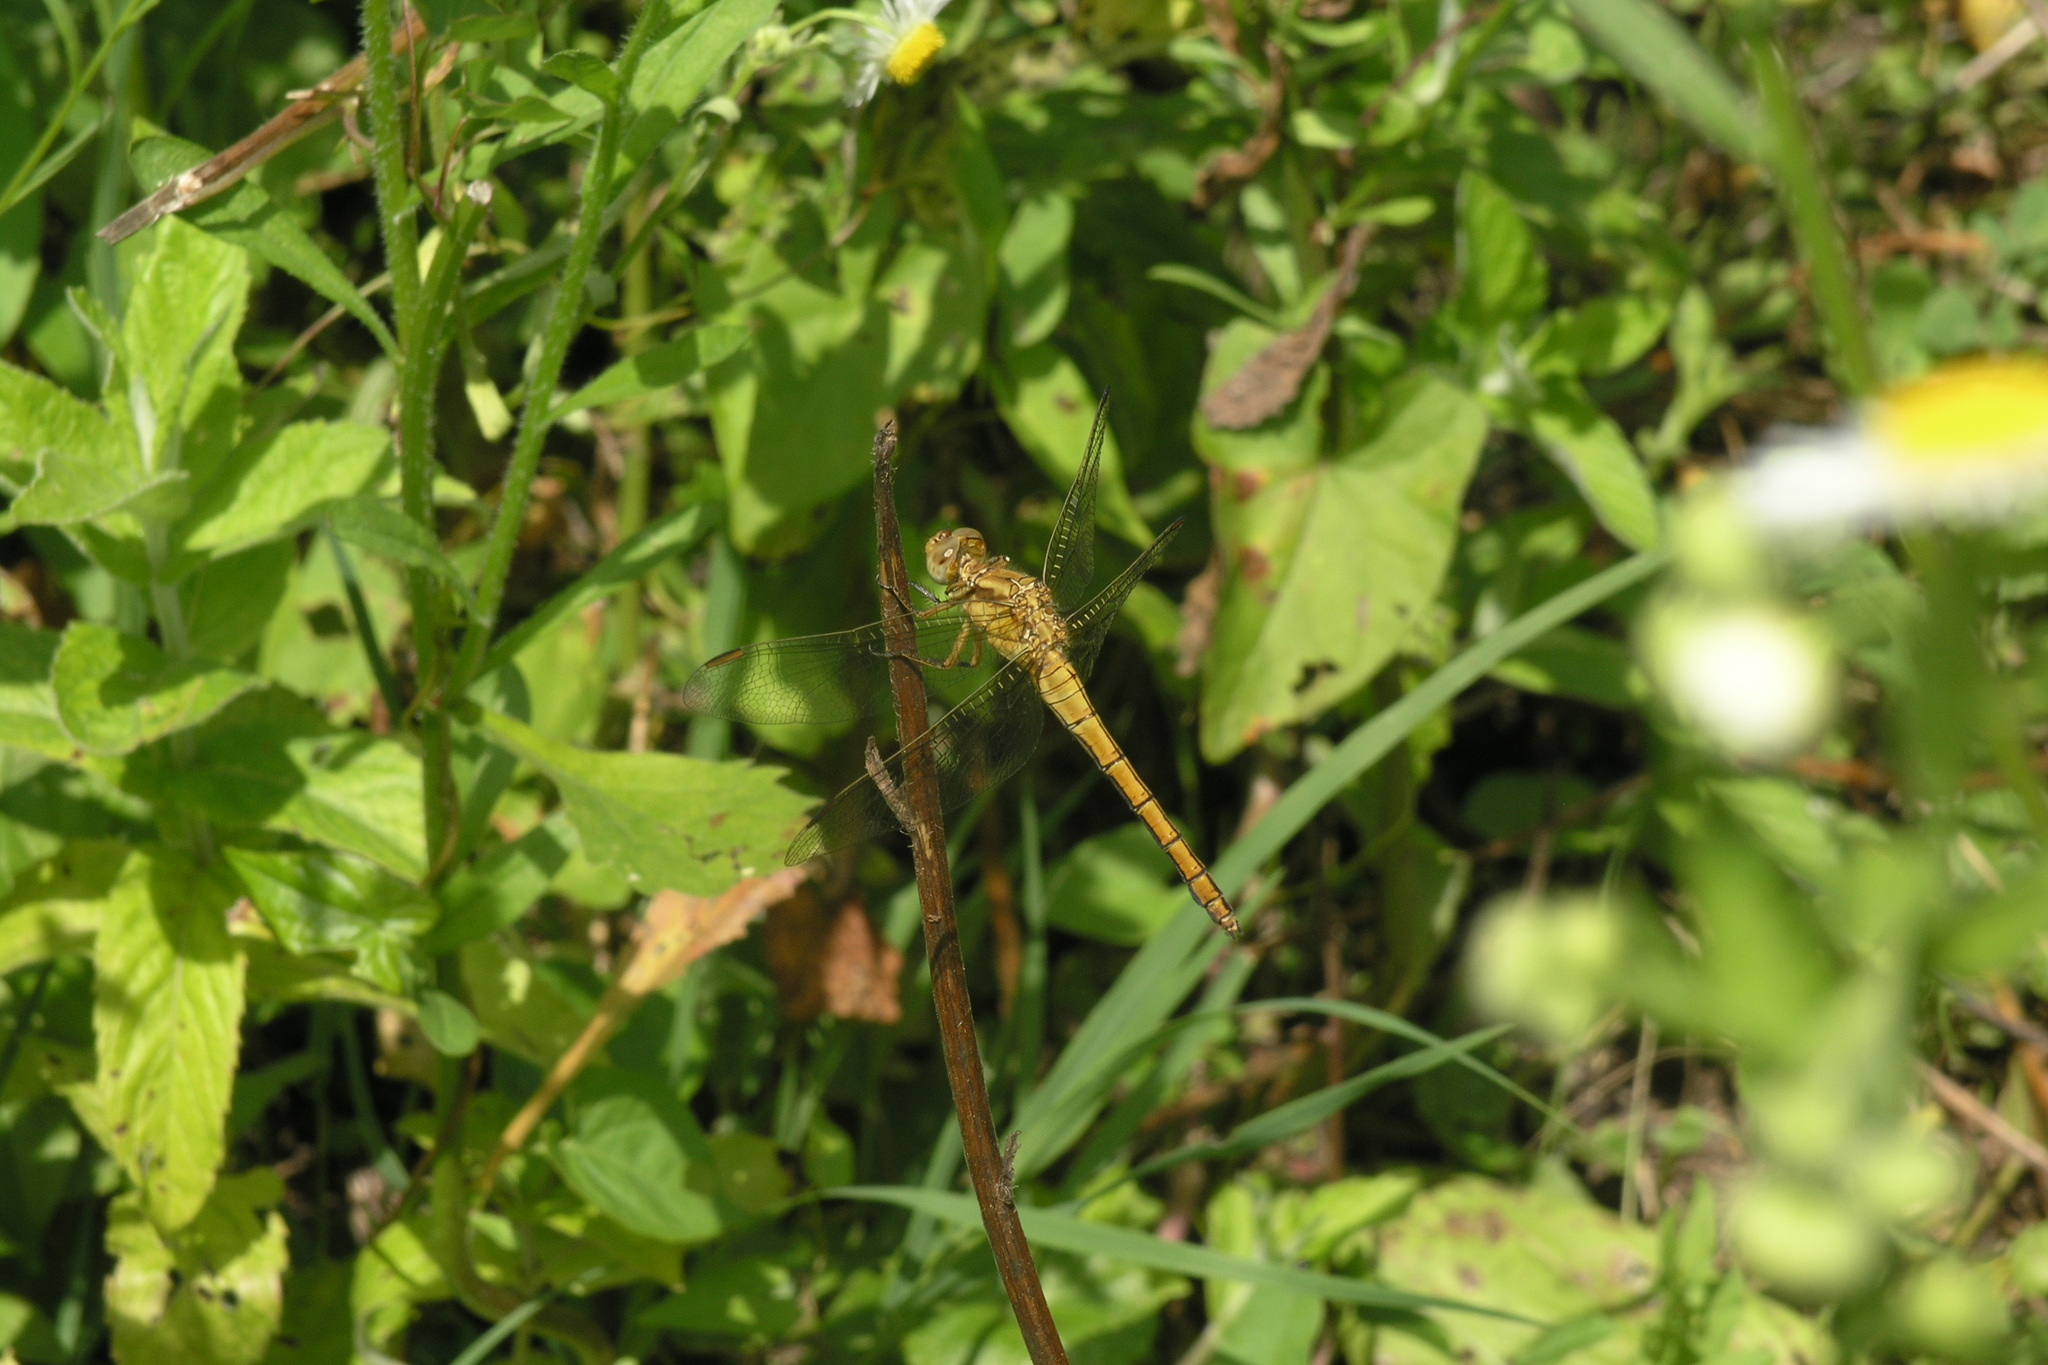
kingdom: Animalia
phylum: Arthropoda
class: Insecta
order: Odonata
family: Libellulidae
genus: Orthetrum
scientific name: Orthetrum coerulescens
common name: Keeled skimmer
